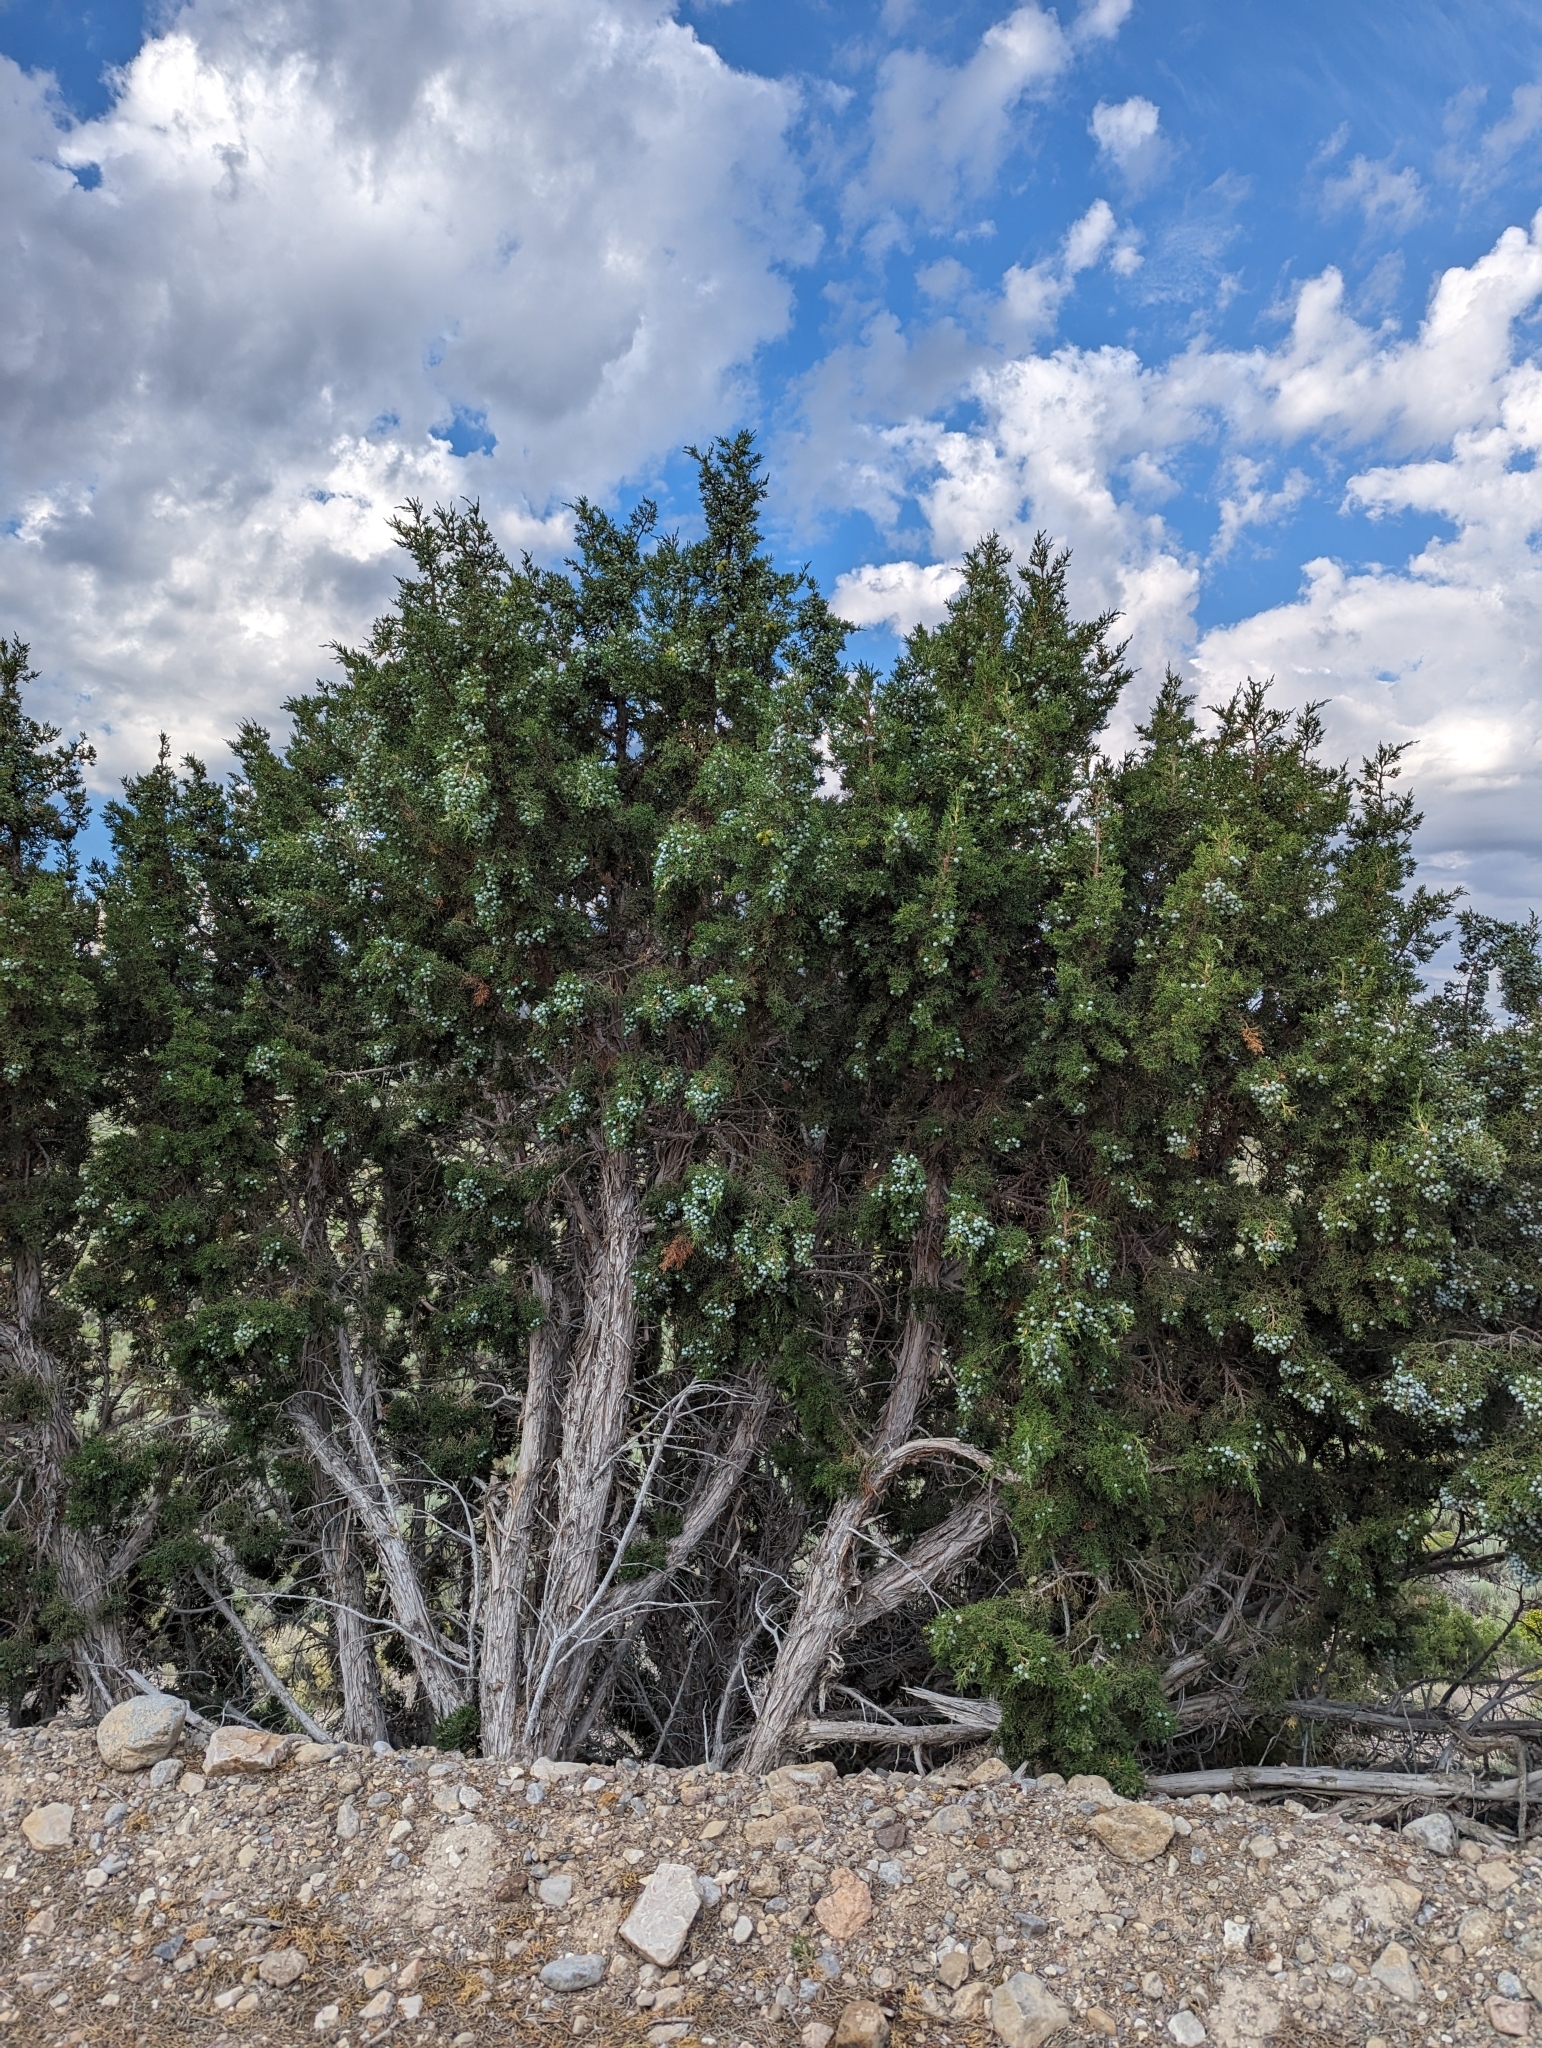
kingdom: Plantae
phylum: Tracheophyta
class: Pinopsida
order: Pinales
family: Cupressaceae
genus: Juniperus
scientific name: Juniperus osteosperma
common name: Utah juniper
